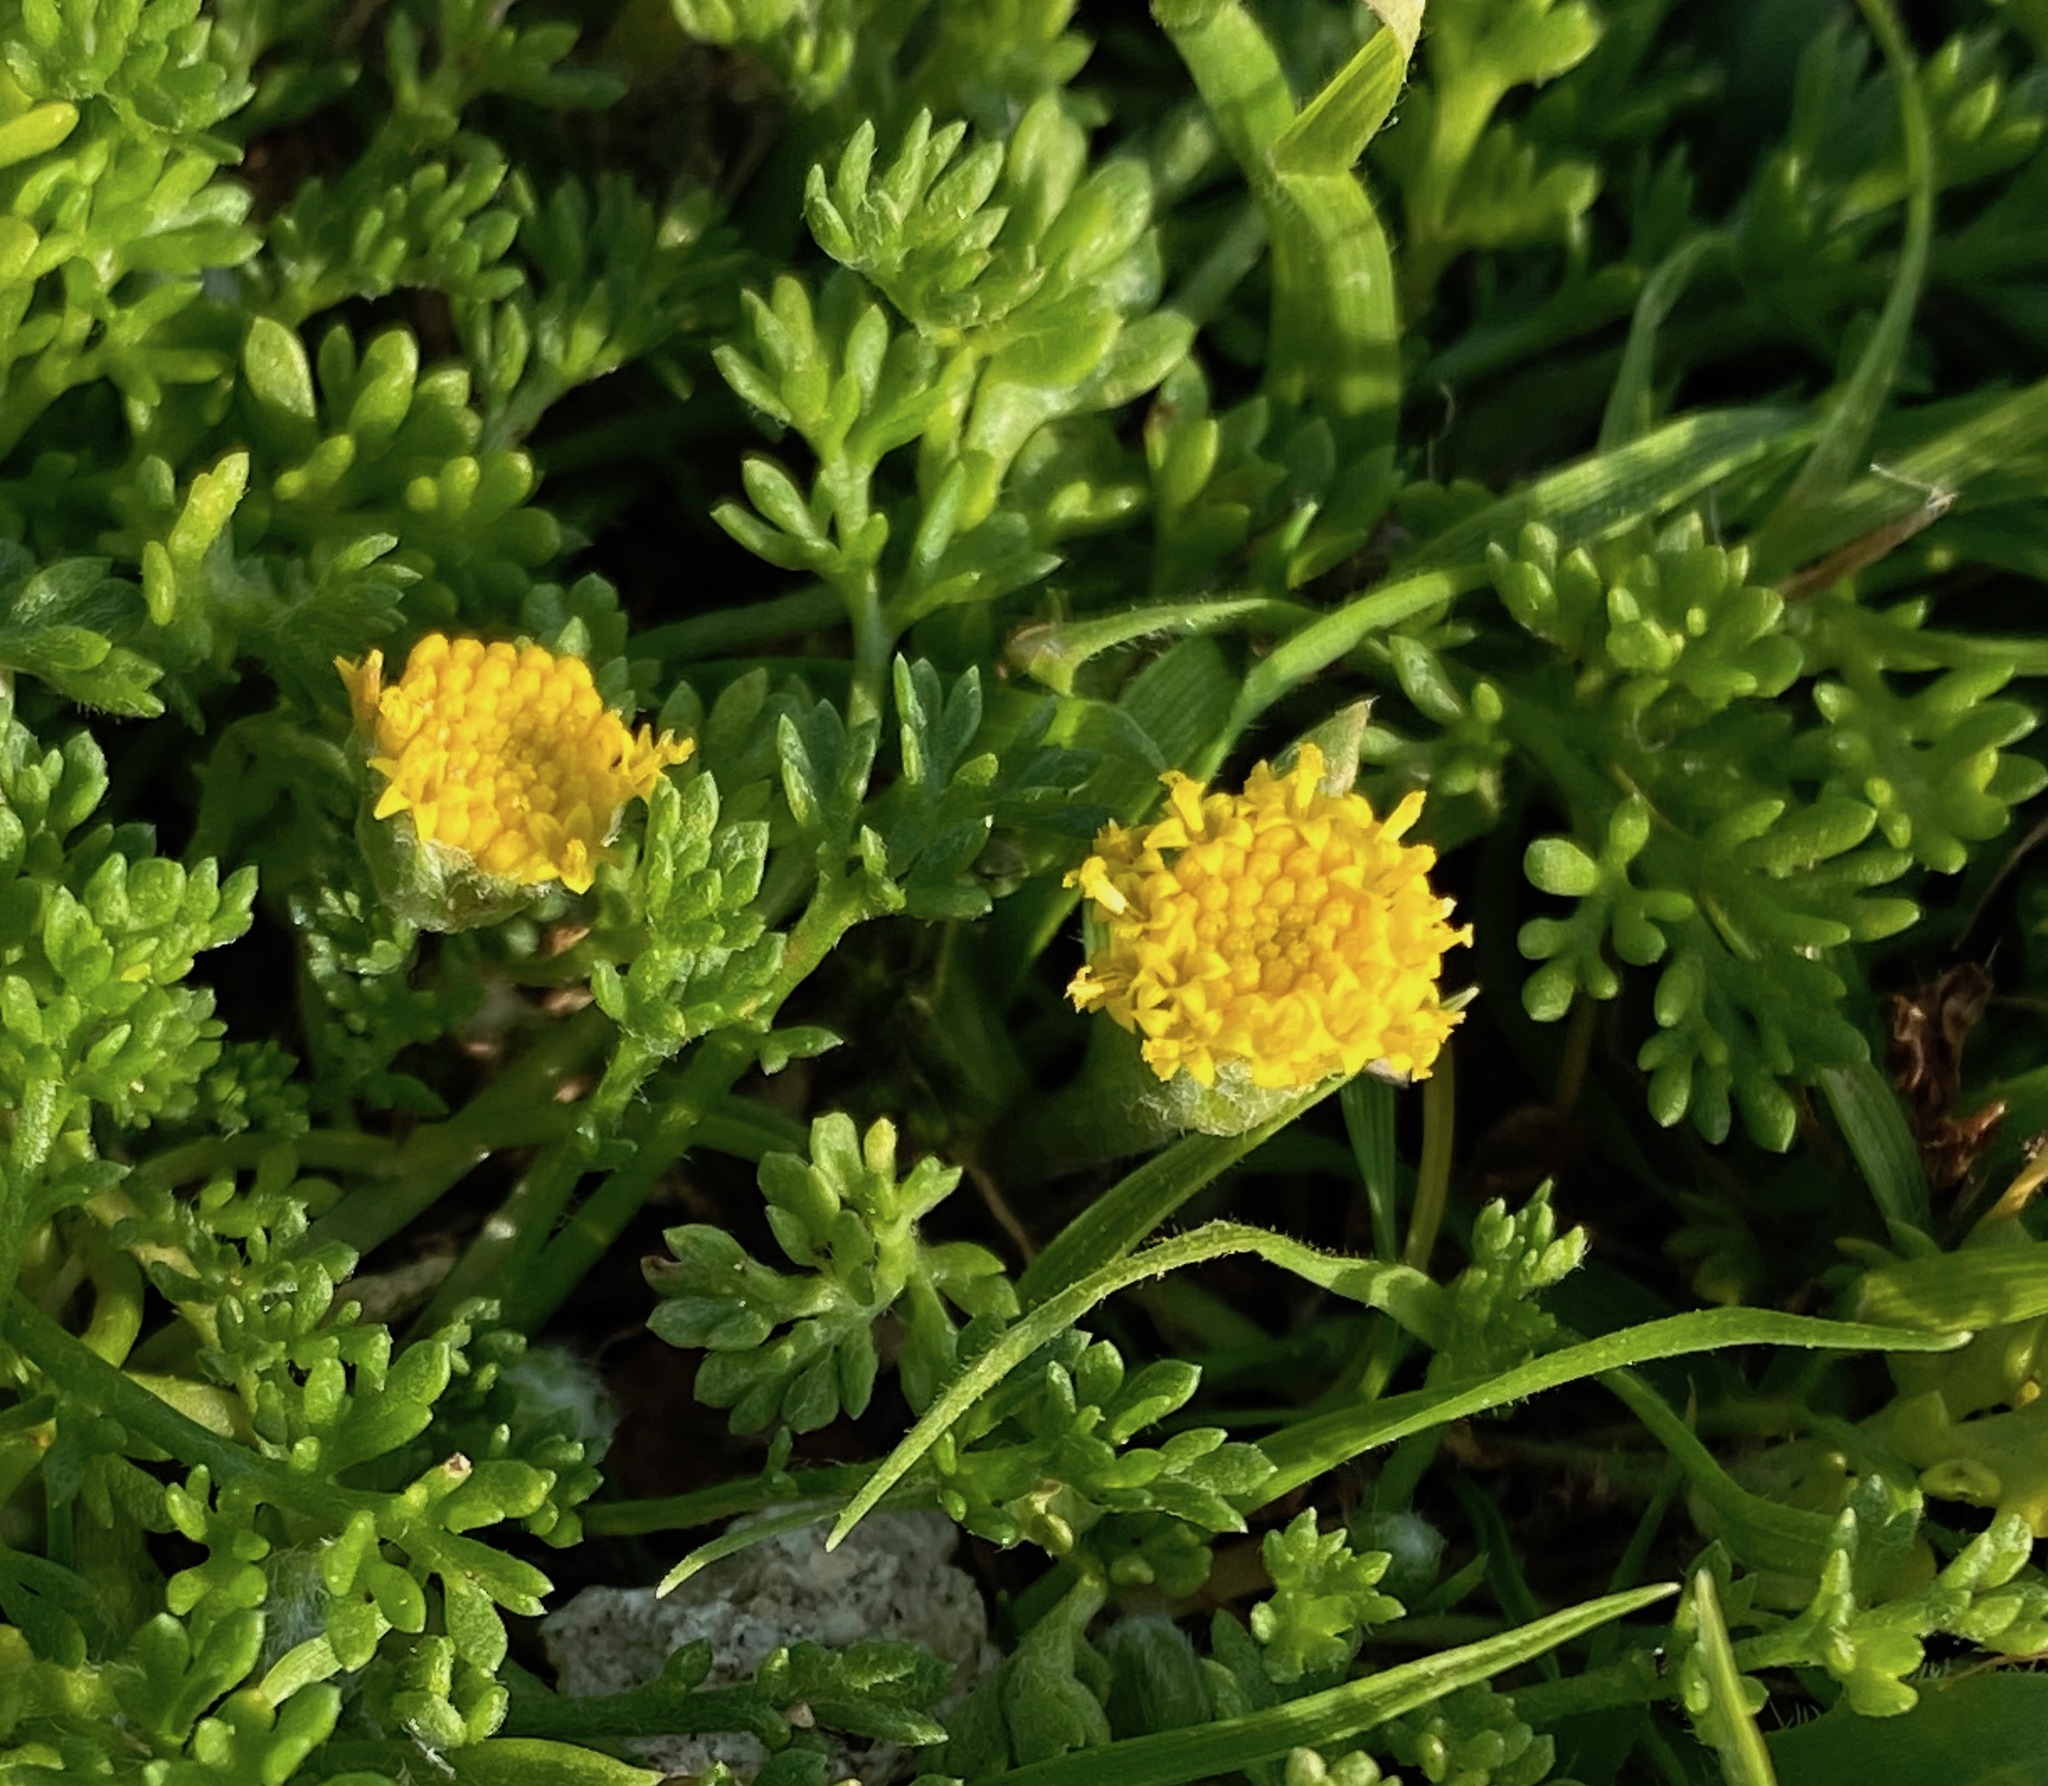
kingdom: Plantae
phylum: Tracheophyta
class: Magnoliopsida
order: Asterales
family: Asteraceae
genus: Anthemis
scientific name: Anthemis rigida
